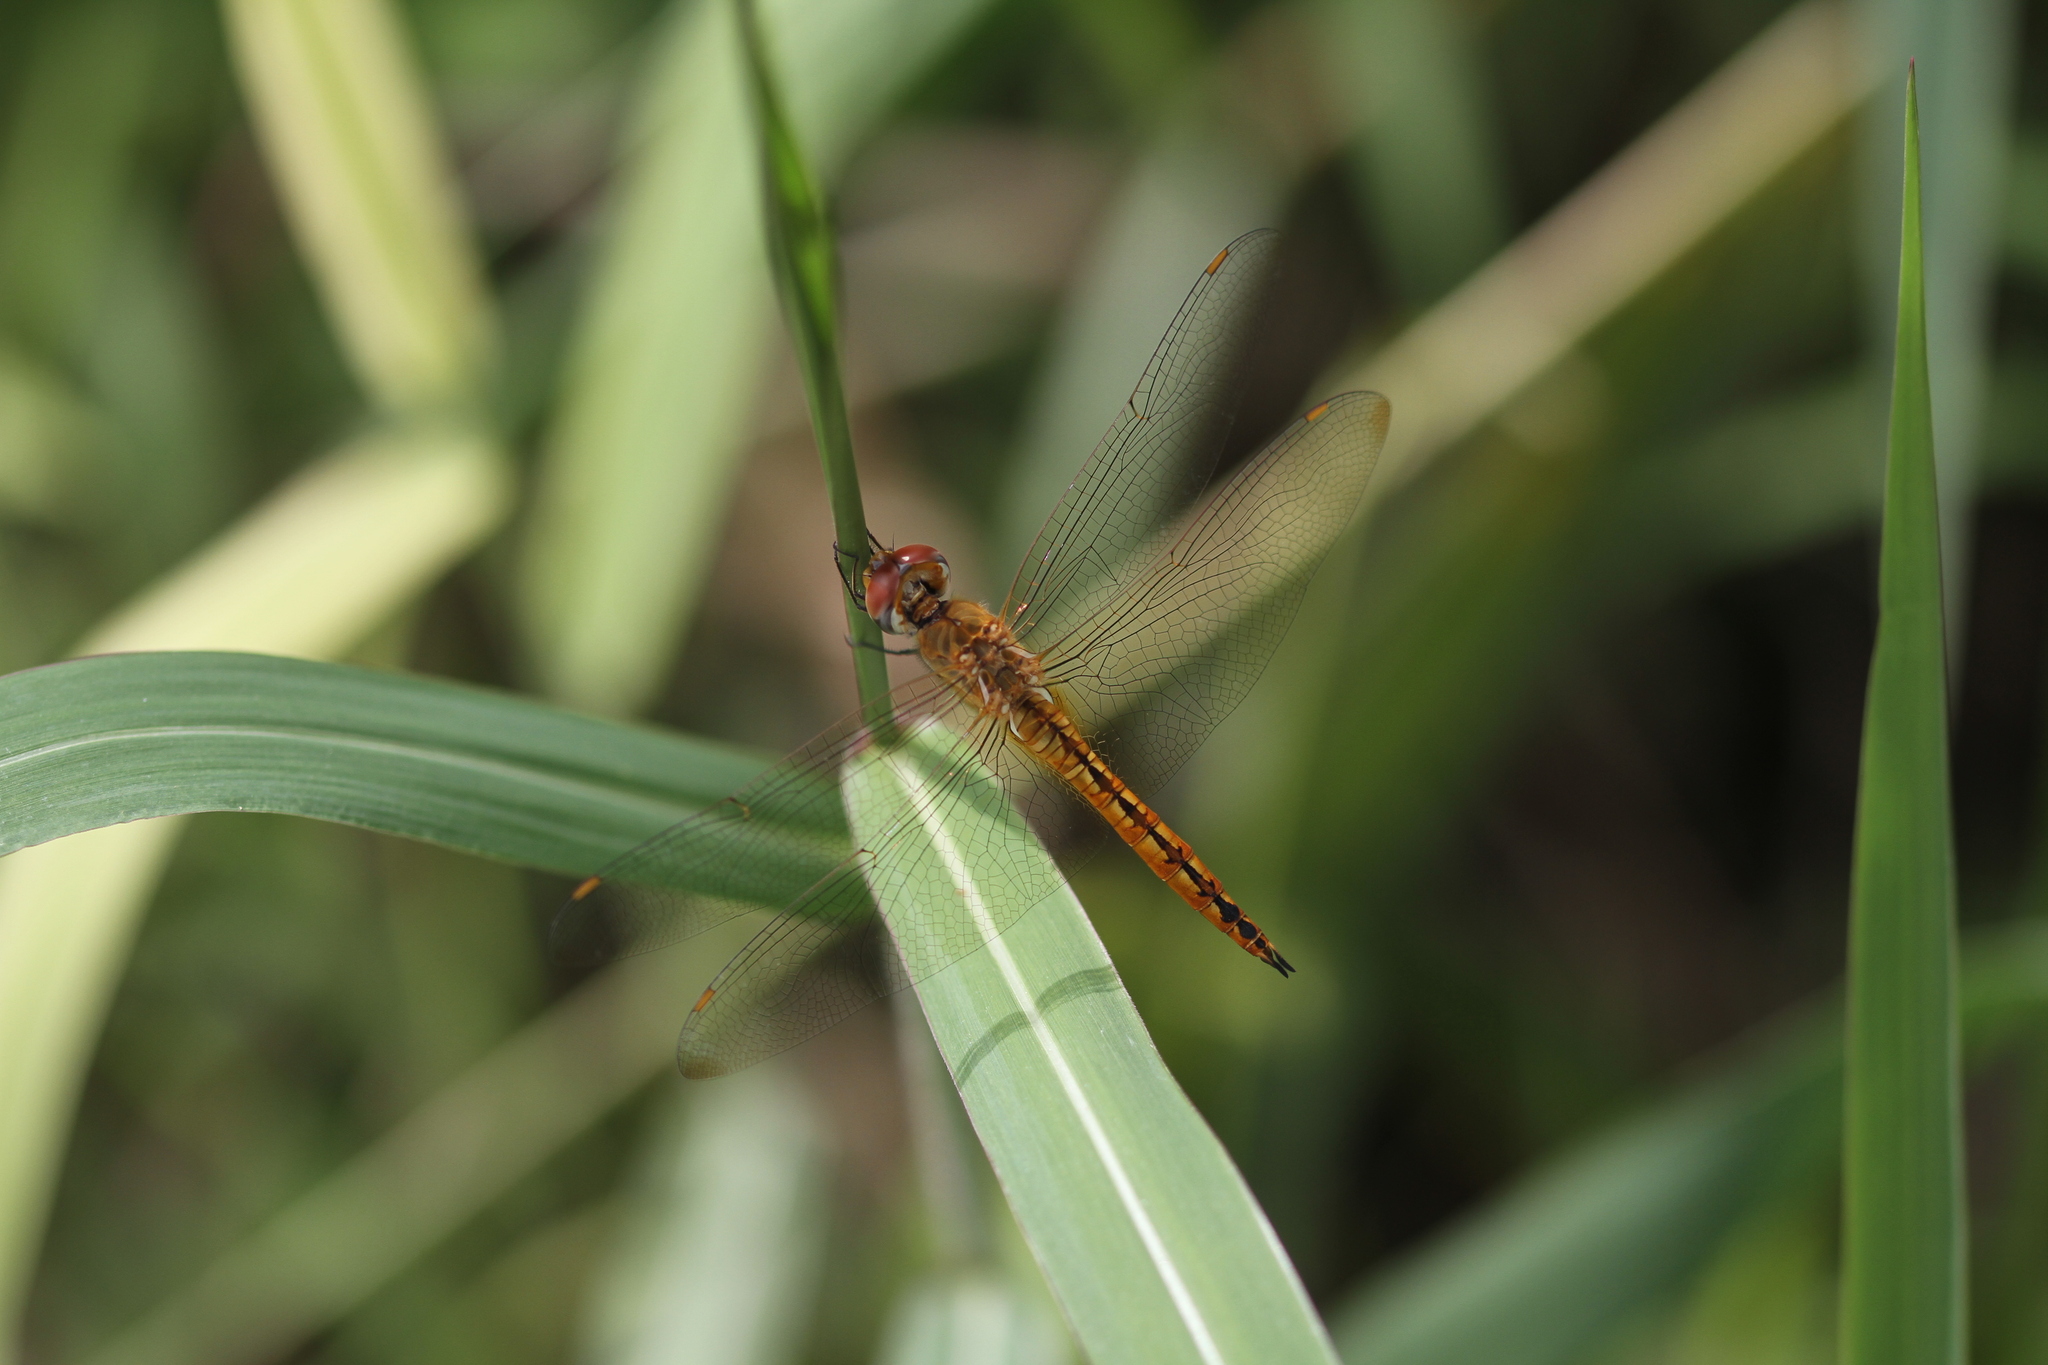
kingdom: Animalia
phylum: Arthropoda
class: Insecta
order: Odonata
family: Libellulidae
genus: Pantala
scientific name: Pantala flavescens
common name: Wandering glider
